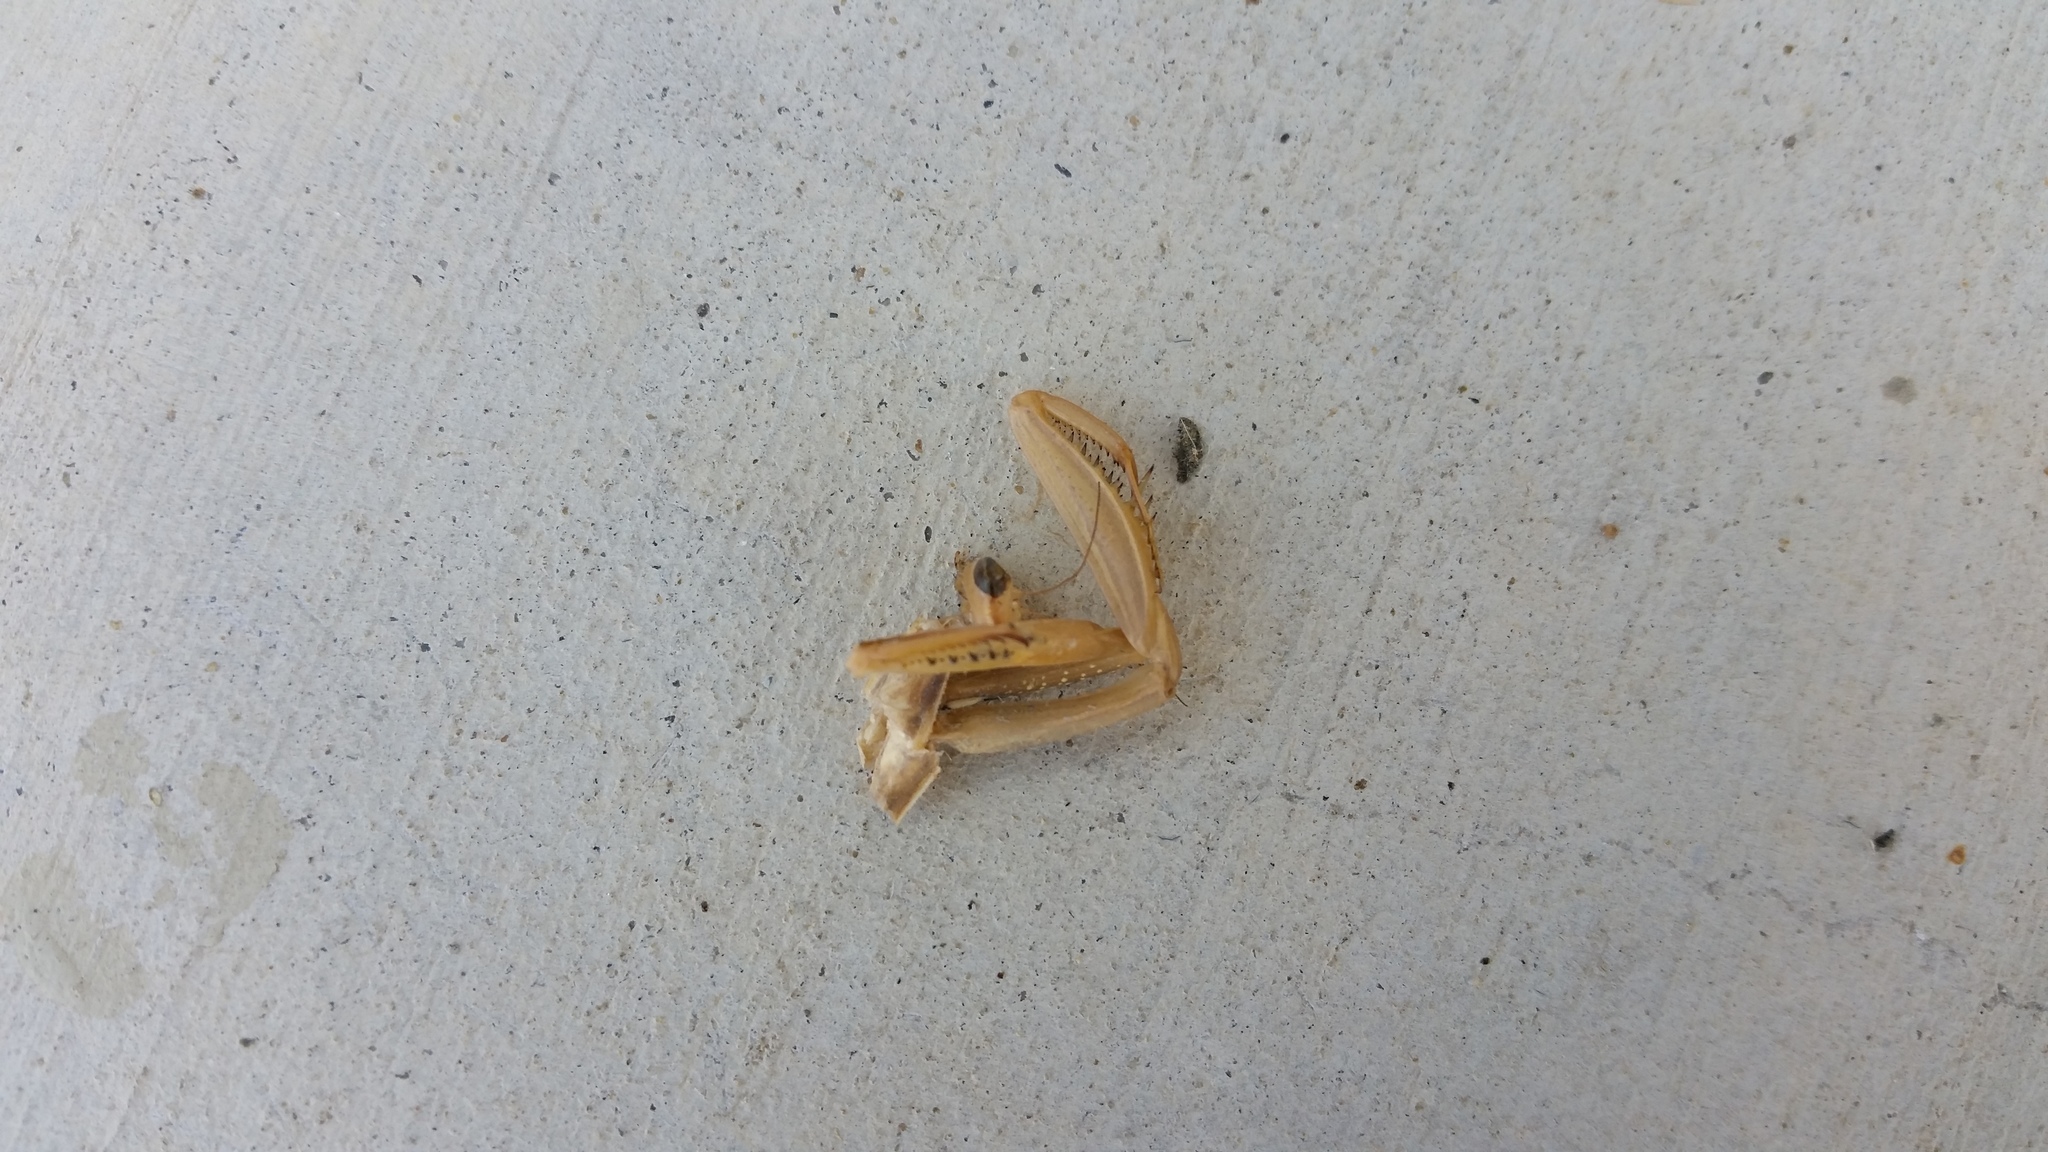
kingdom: Animalia
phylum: Arthropoda
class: Insecta
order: Mantodea
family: Mantidae
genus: Mantis
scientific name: Mantis religiosa
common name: Praying mantis
